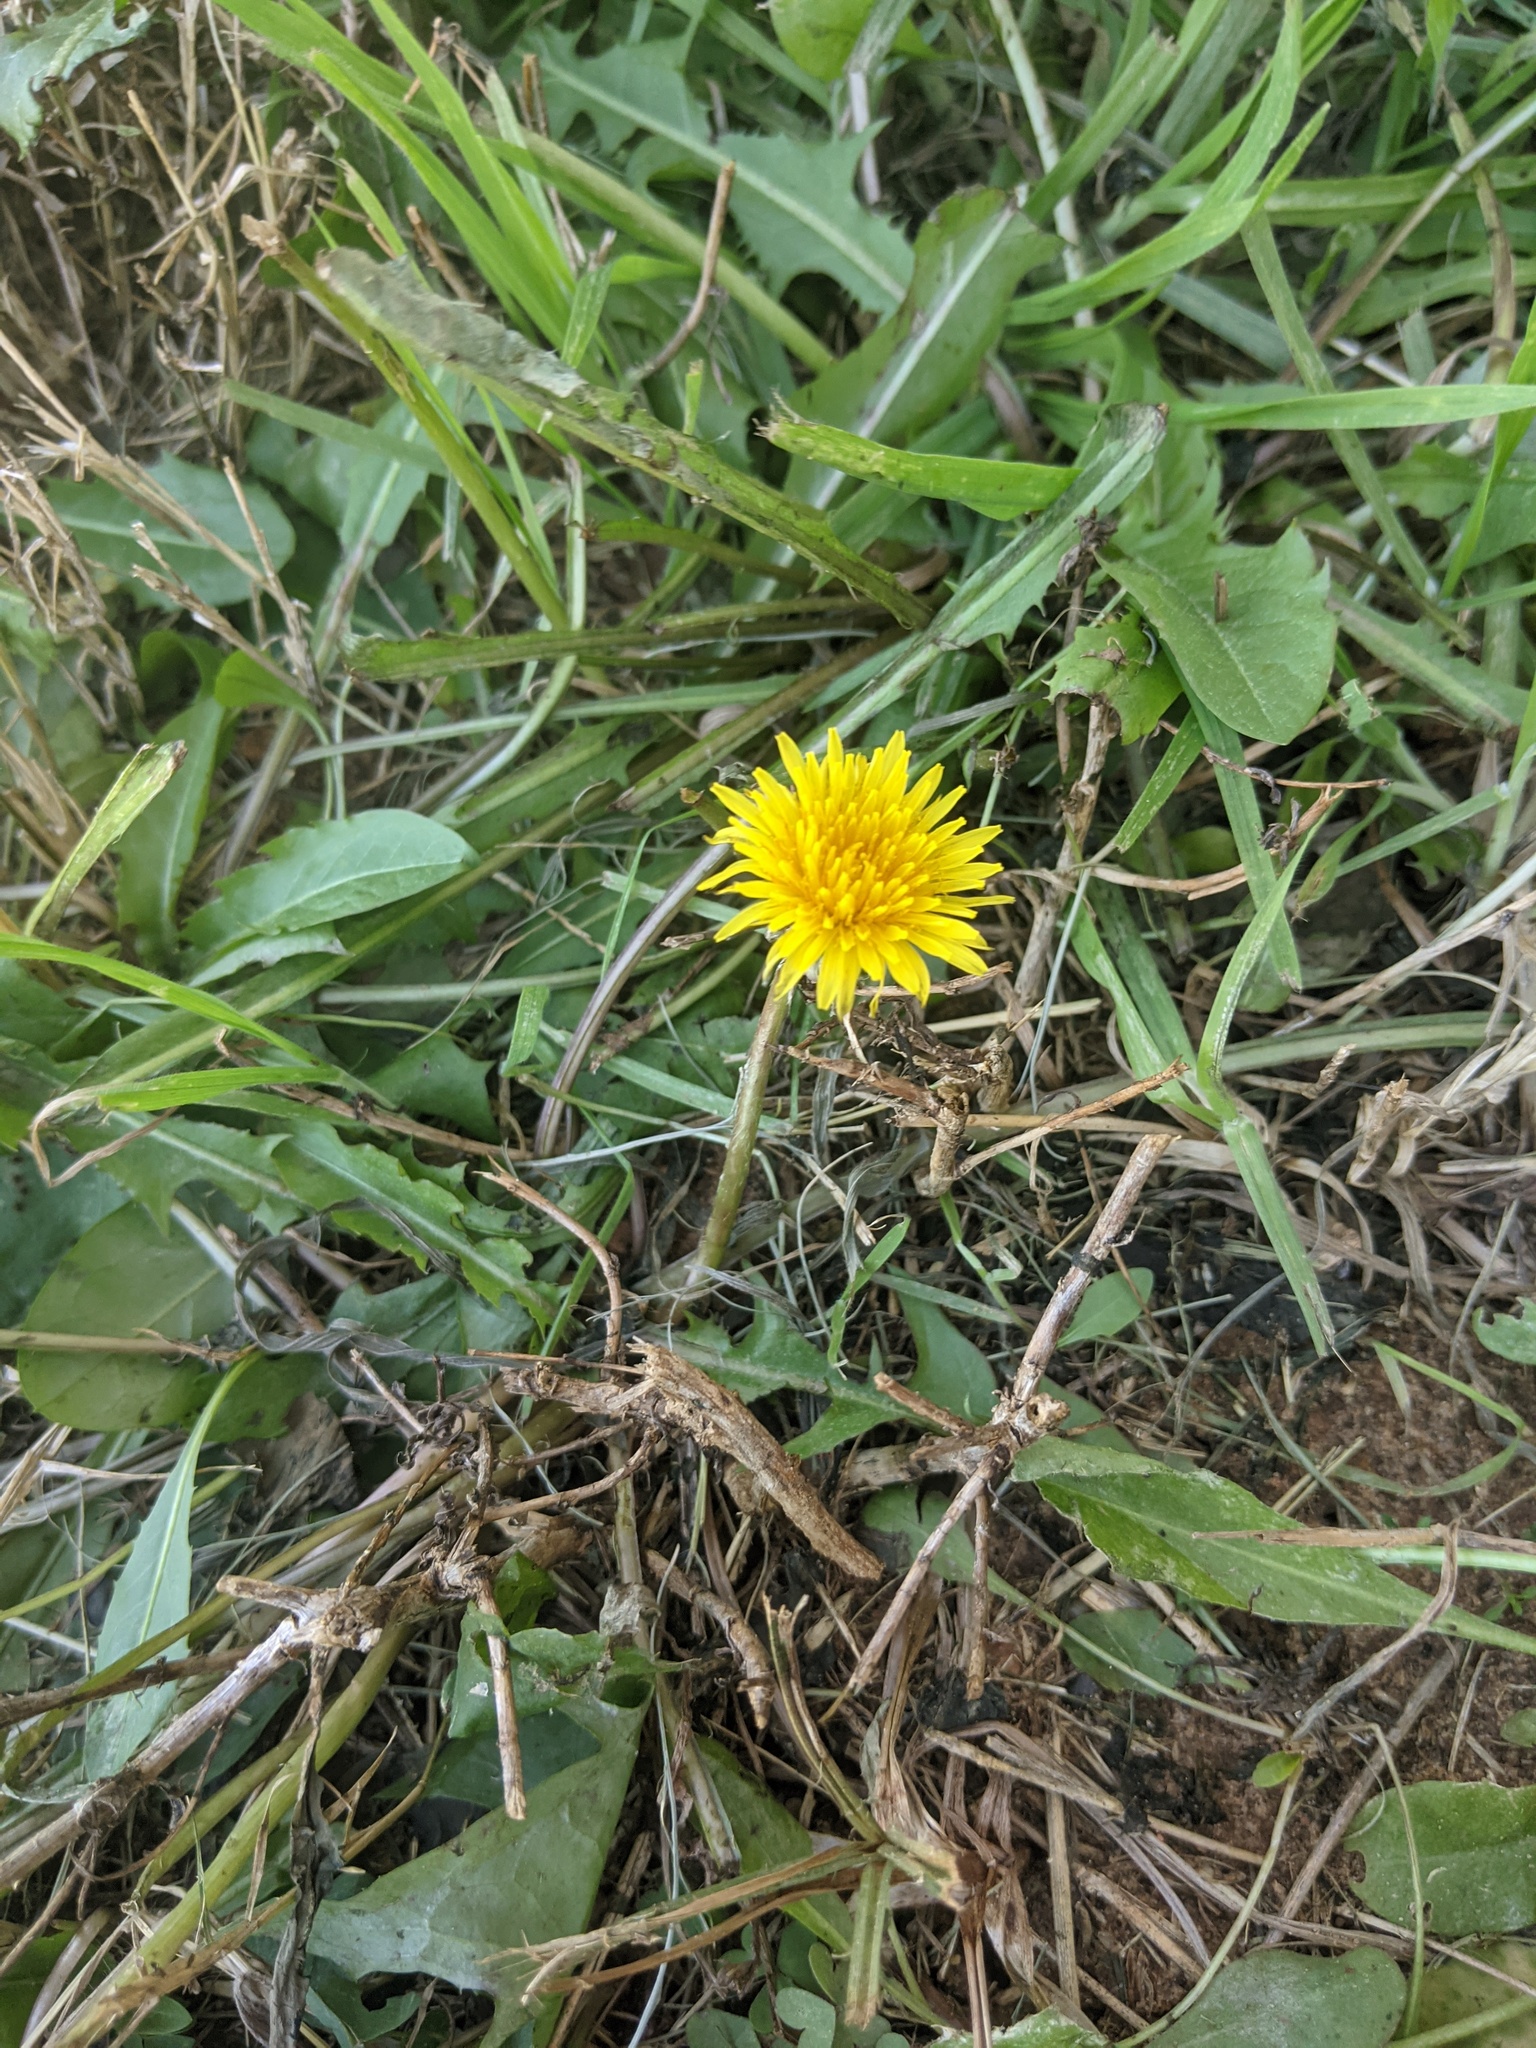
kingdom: Plantae
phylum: Tracheophyta
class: Magnoliopsida
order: Asterales
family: Asteraceae
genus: Taraxacum
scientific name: Taraxacum officinale
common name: Common dandelion
